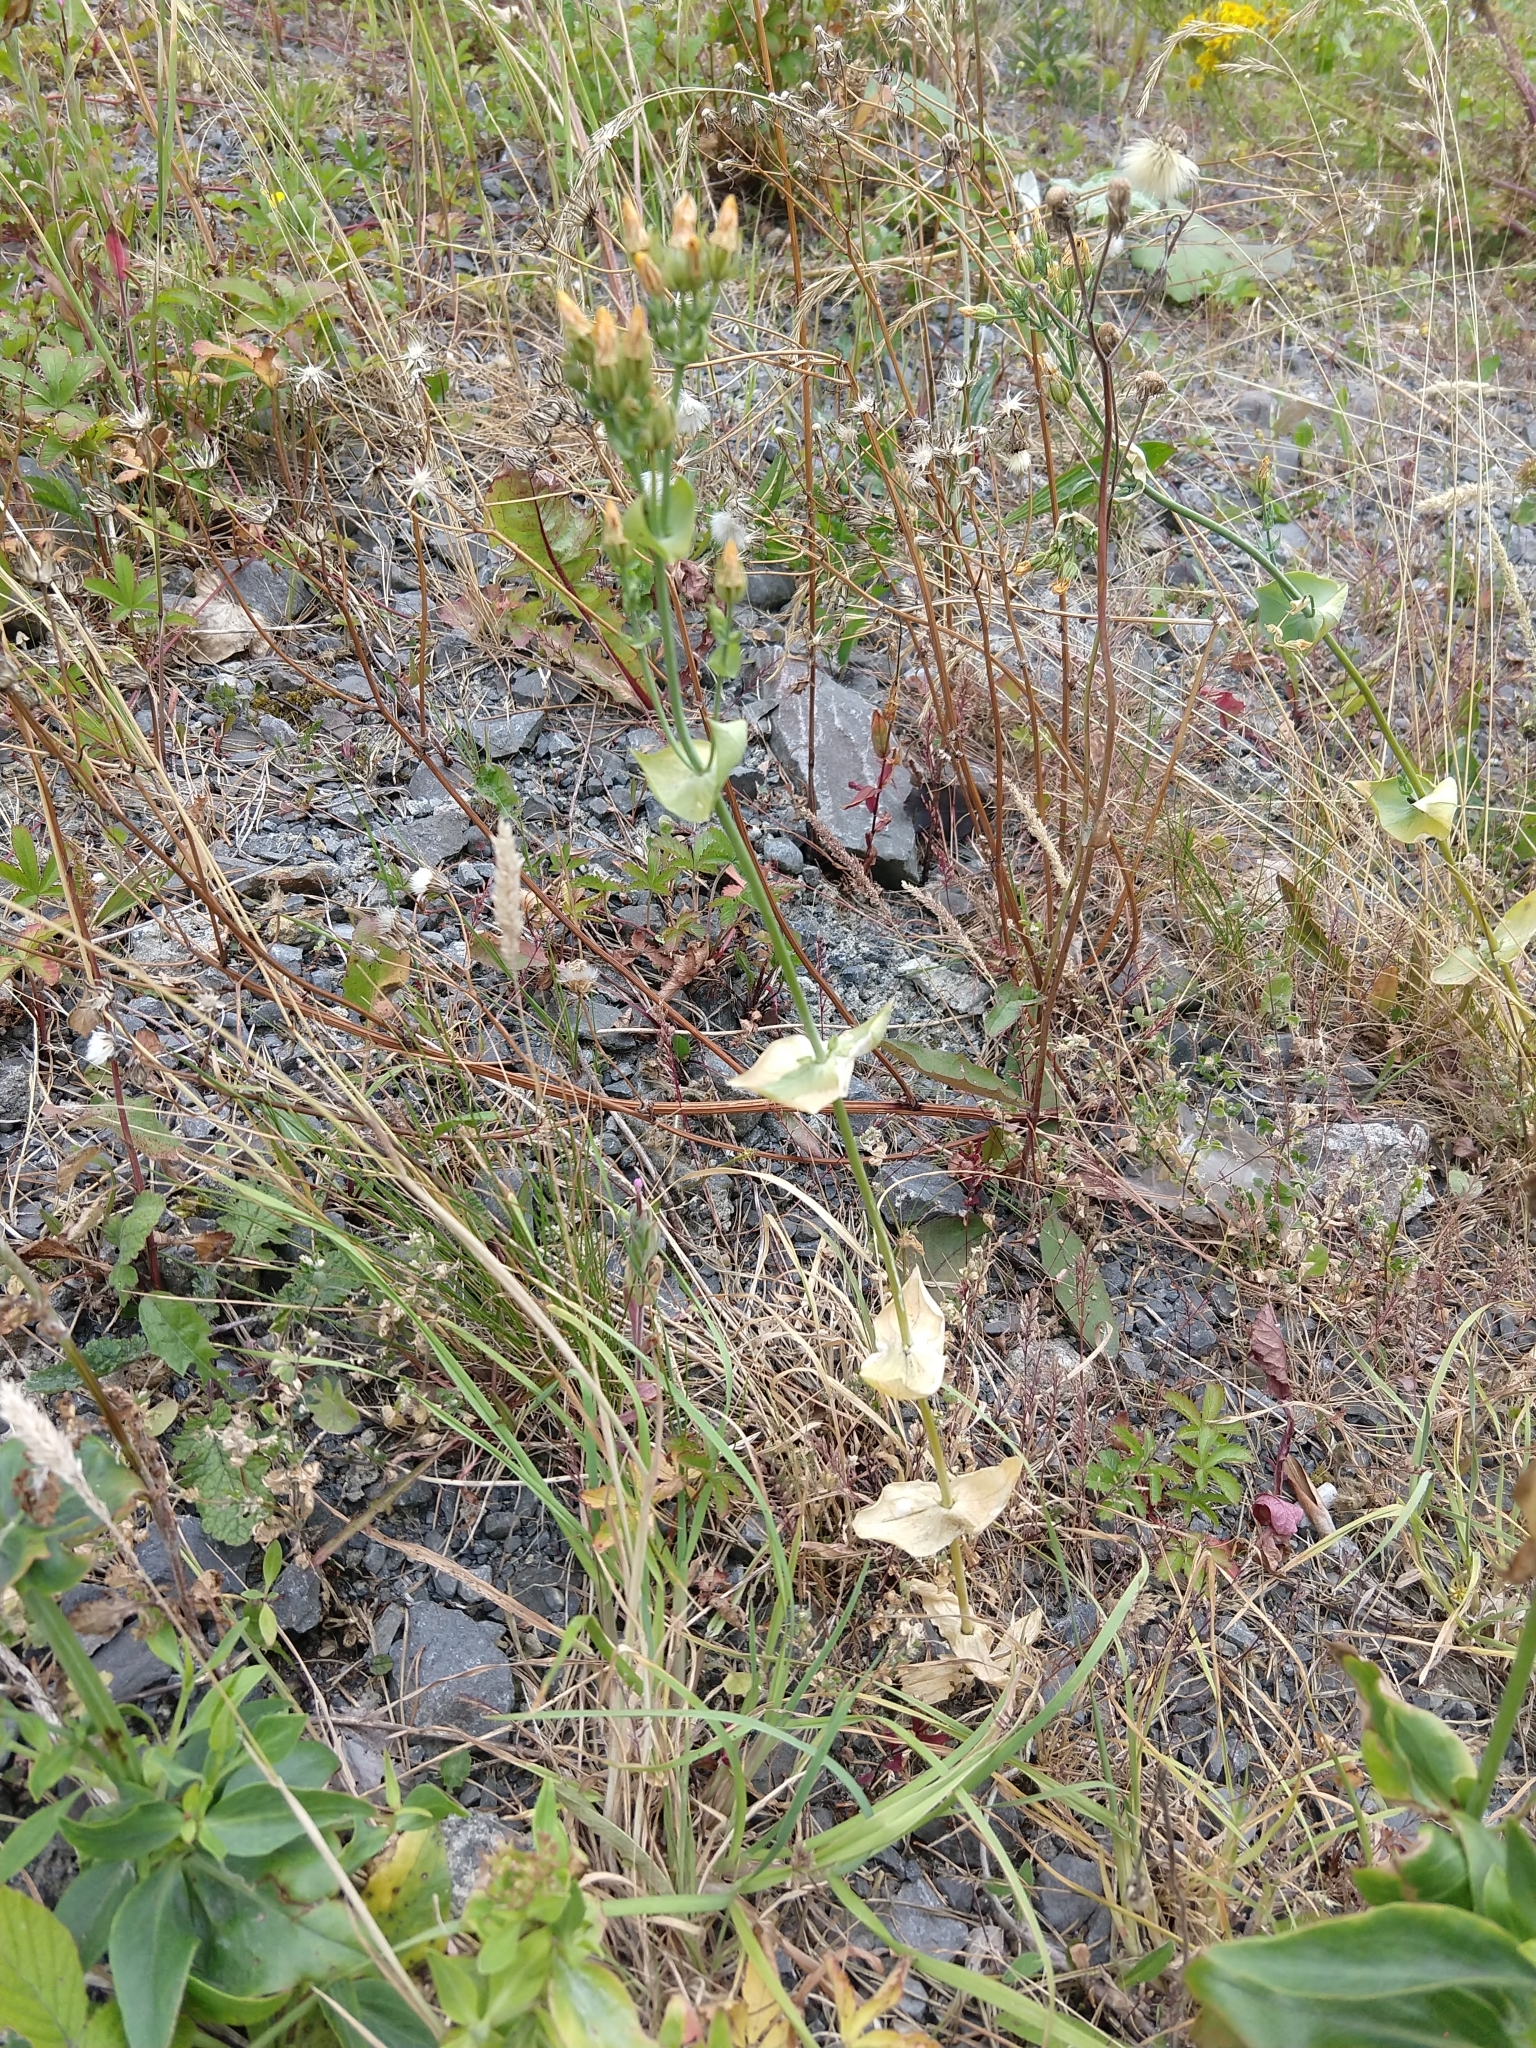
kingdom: Plantae
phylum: Tracheophyta
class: Magnoliopsida
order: Gentianales
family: Gentianaceae
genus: Blackstonia
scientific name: Blackstonia perfoliata
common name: Yellow-wort
